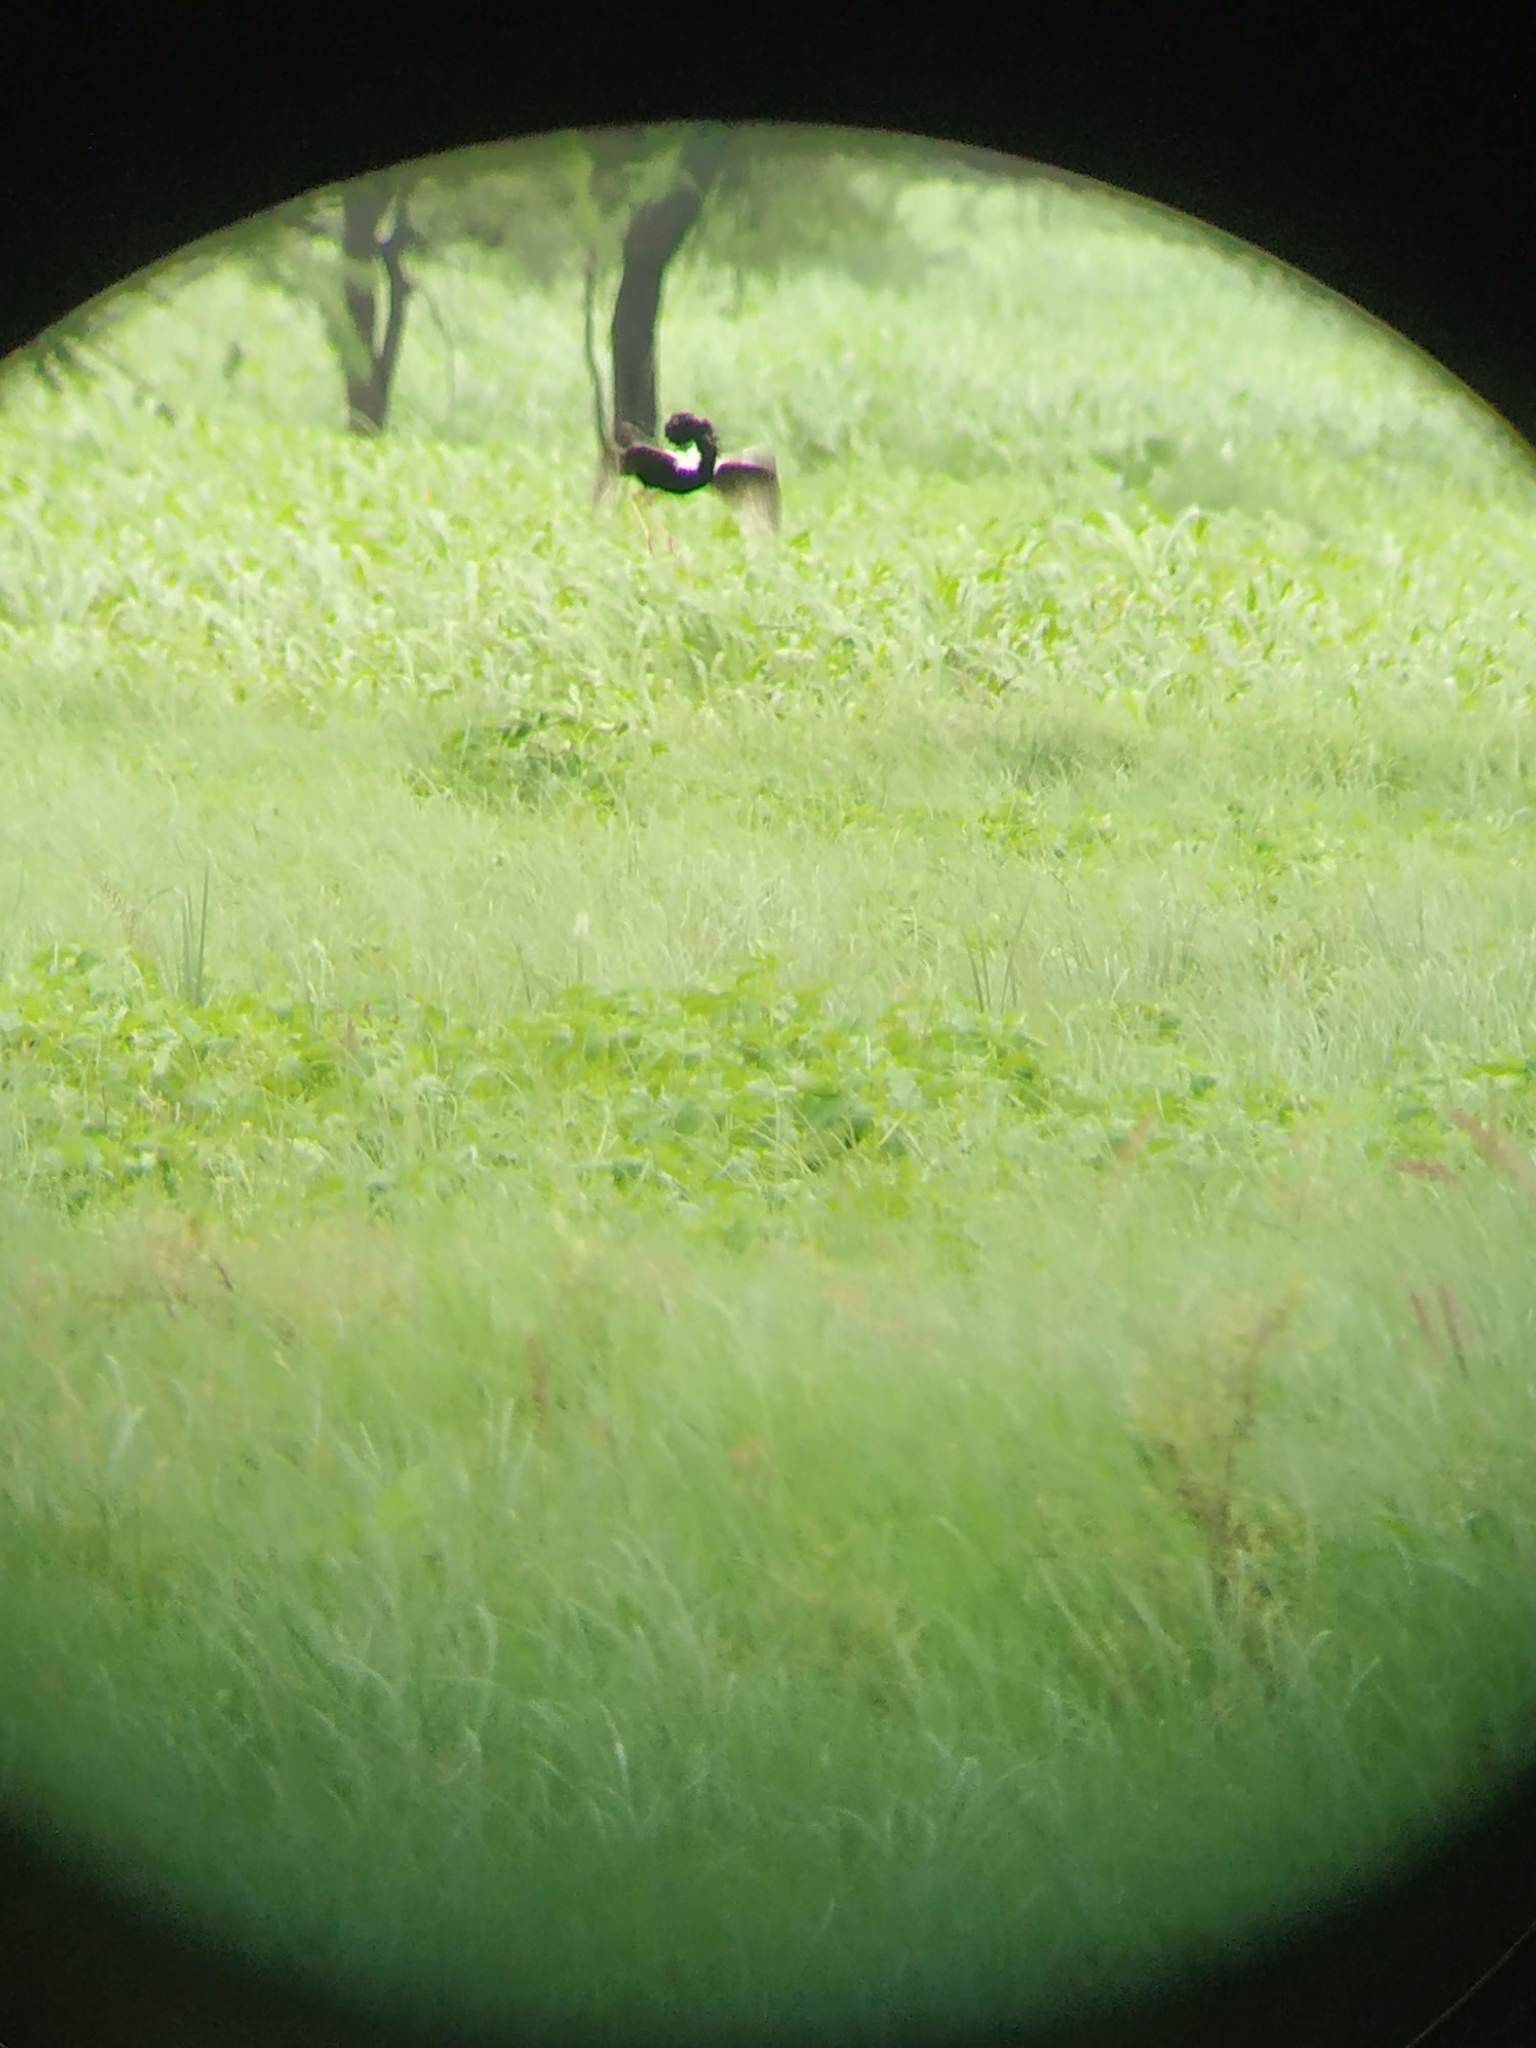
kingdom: Animalia
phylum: Chordata
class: Aves
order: Otidiformes
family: Otididae
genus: Sypheotides
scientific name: Sypheotides indicus
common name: Lesser florican
